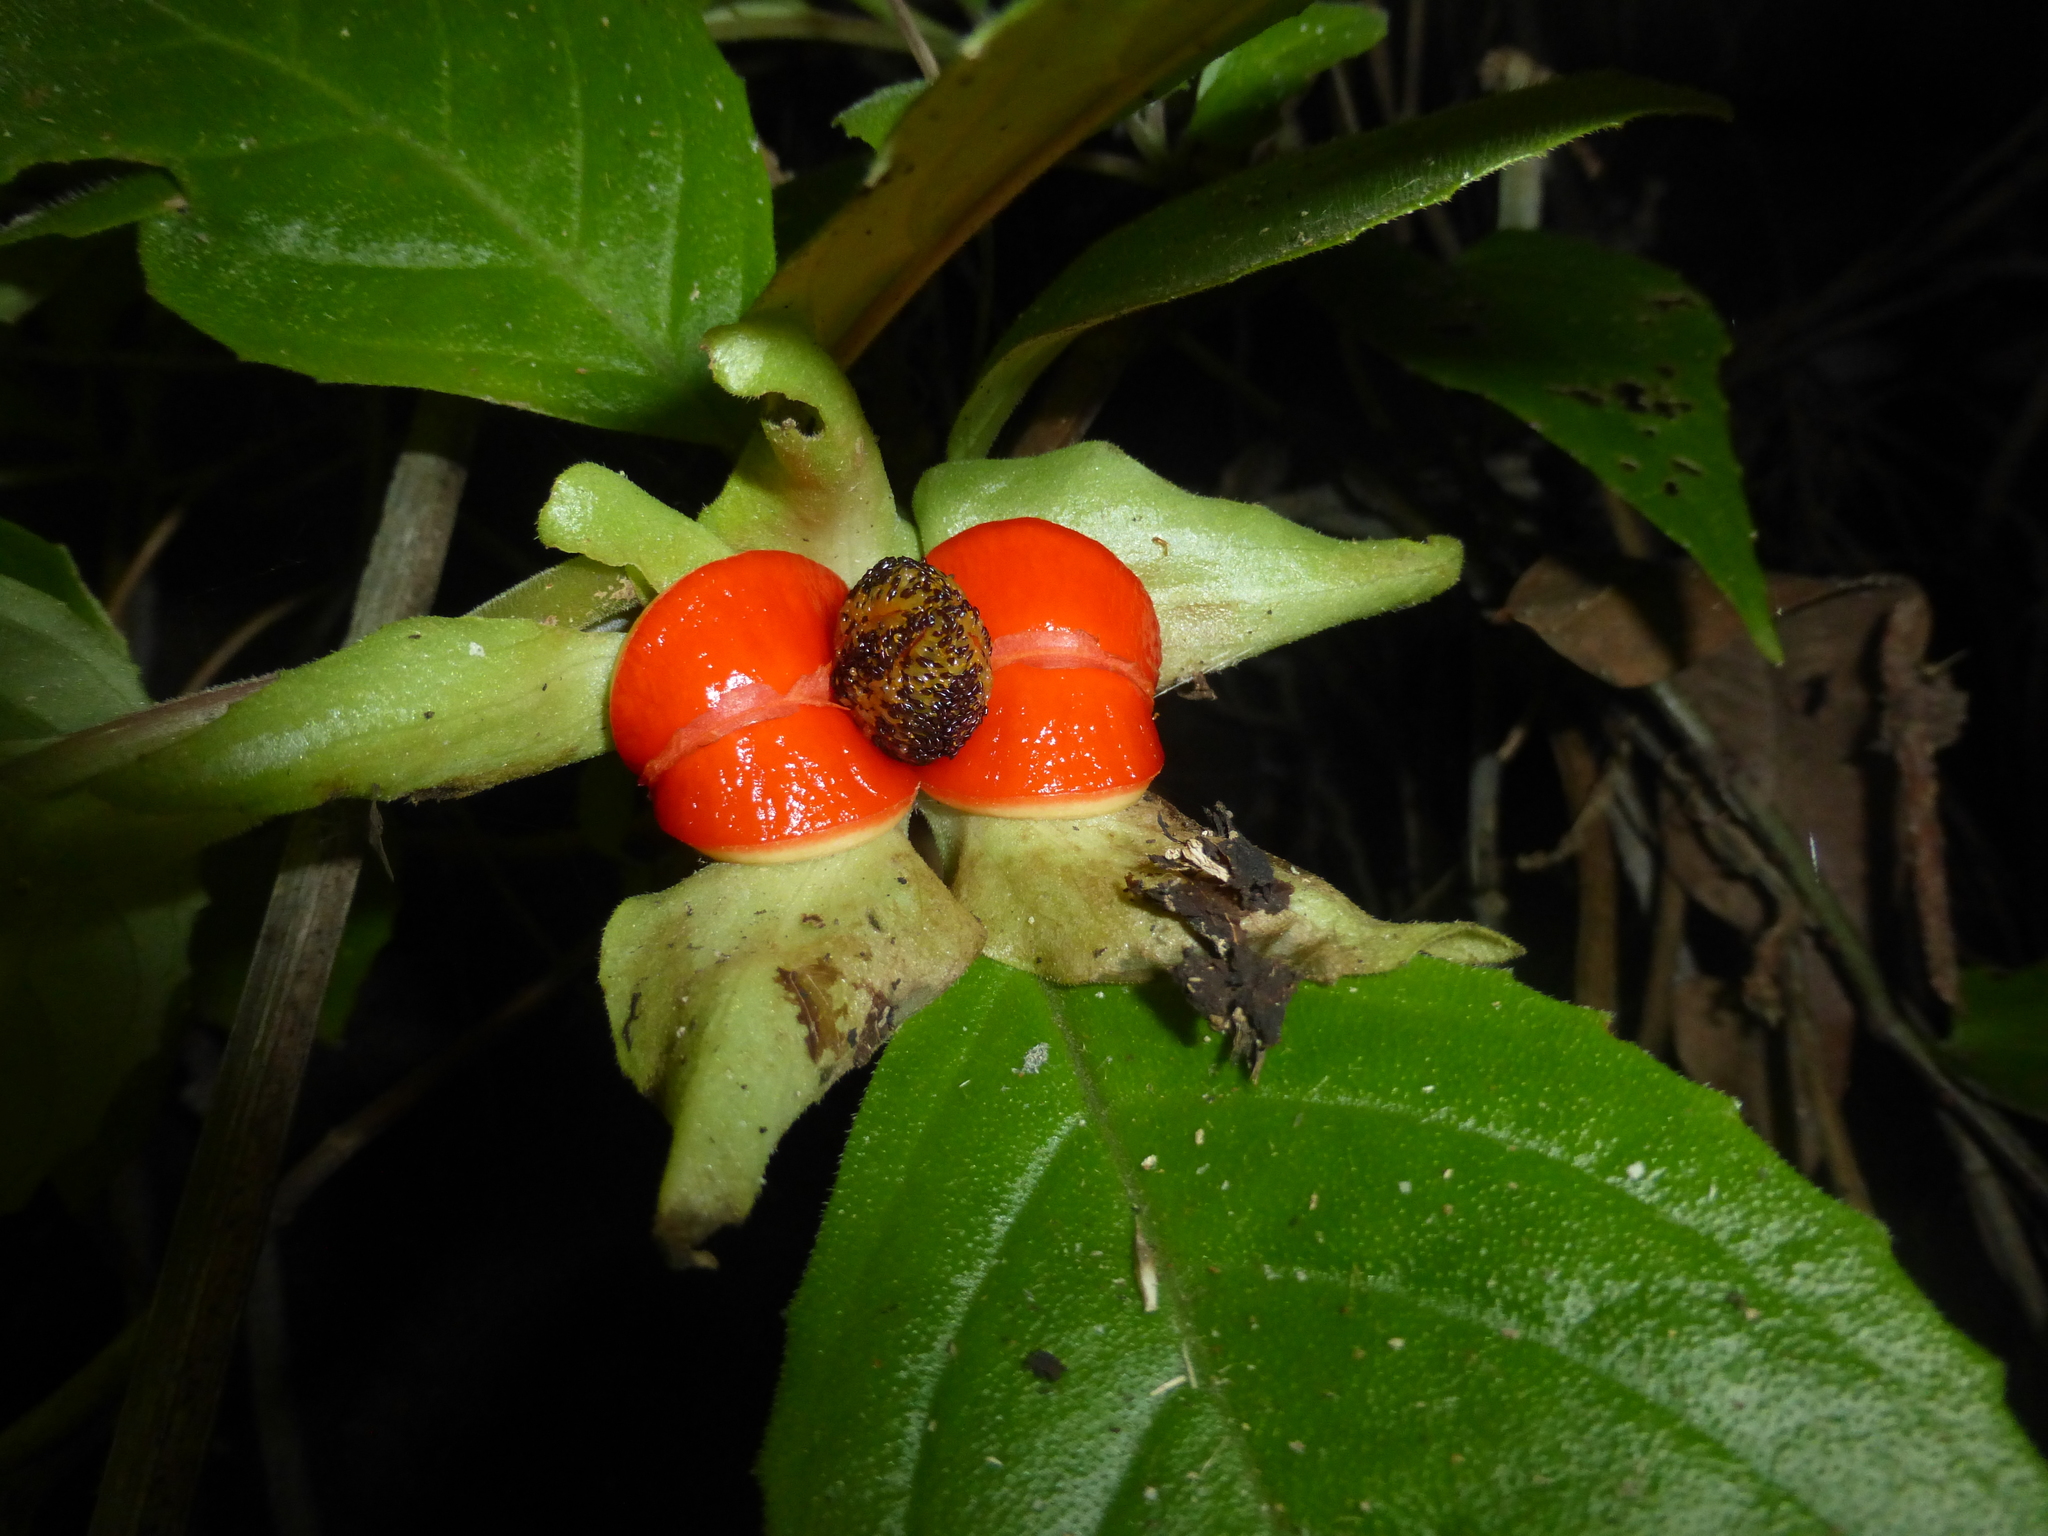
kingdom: Plantae
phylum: Tracheophyta
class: Magnoliopsida
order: Lamiales
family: Gesneriaceae
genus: Drymonia
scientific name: Drymonia serrulata
